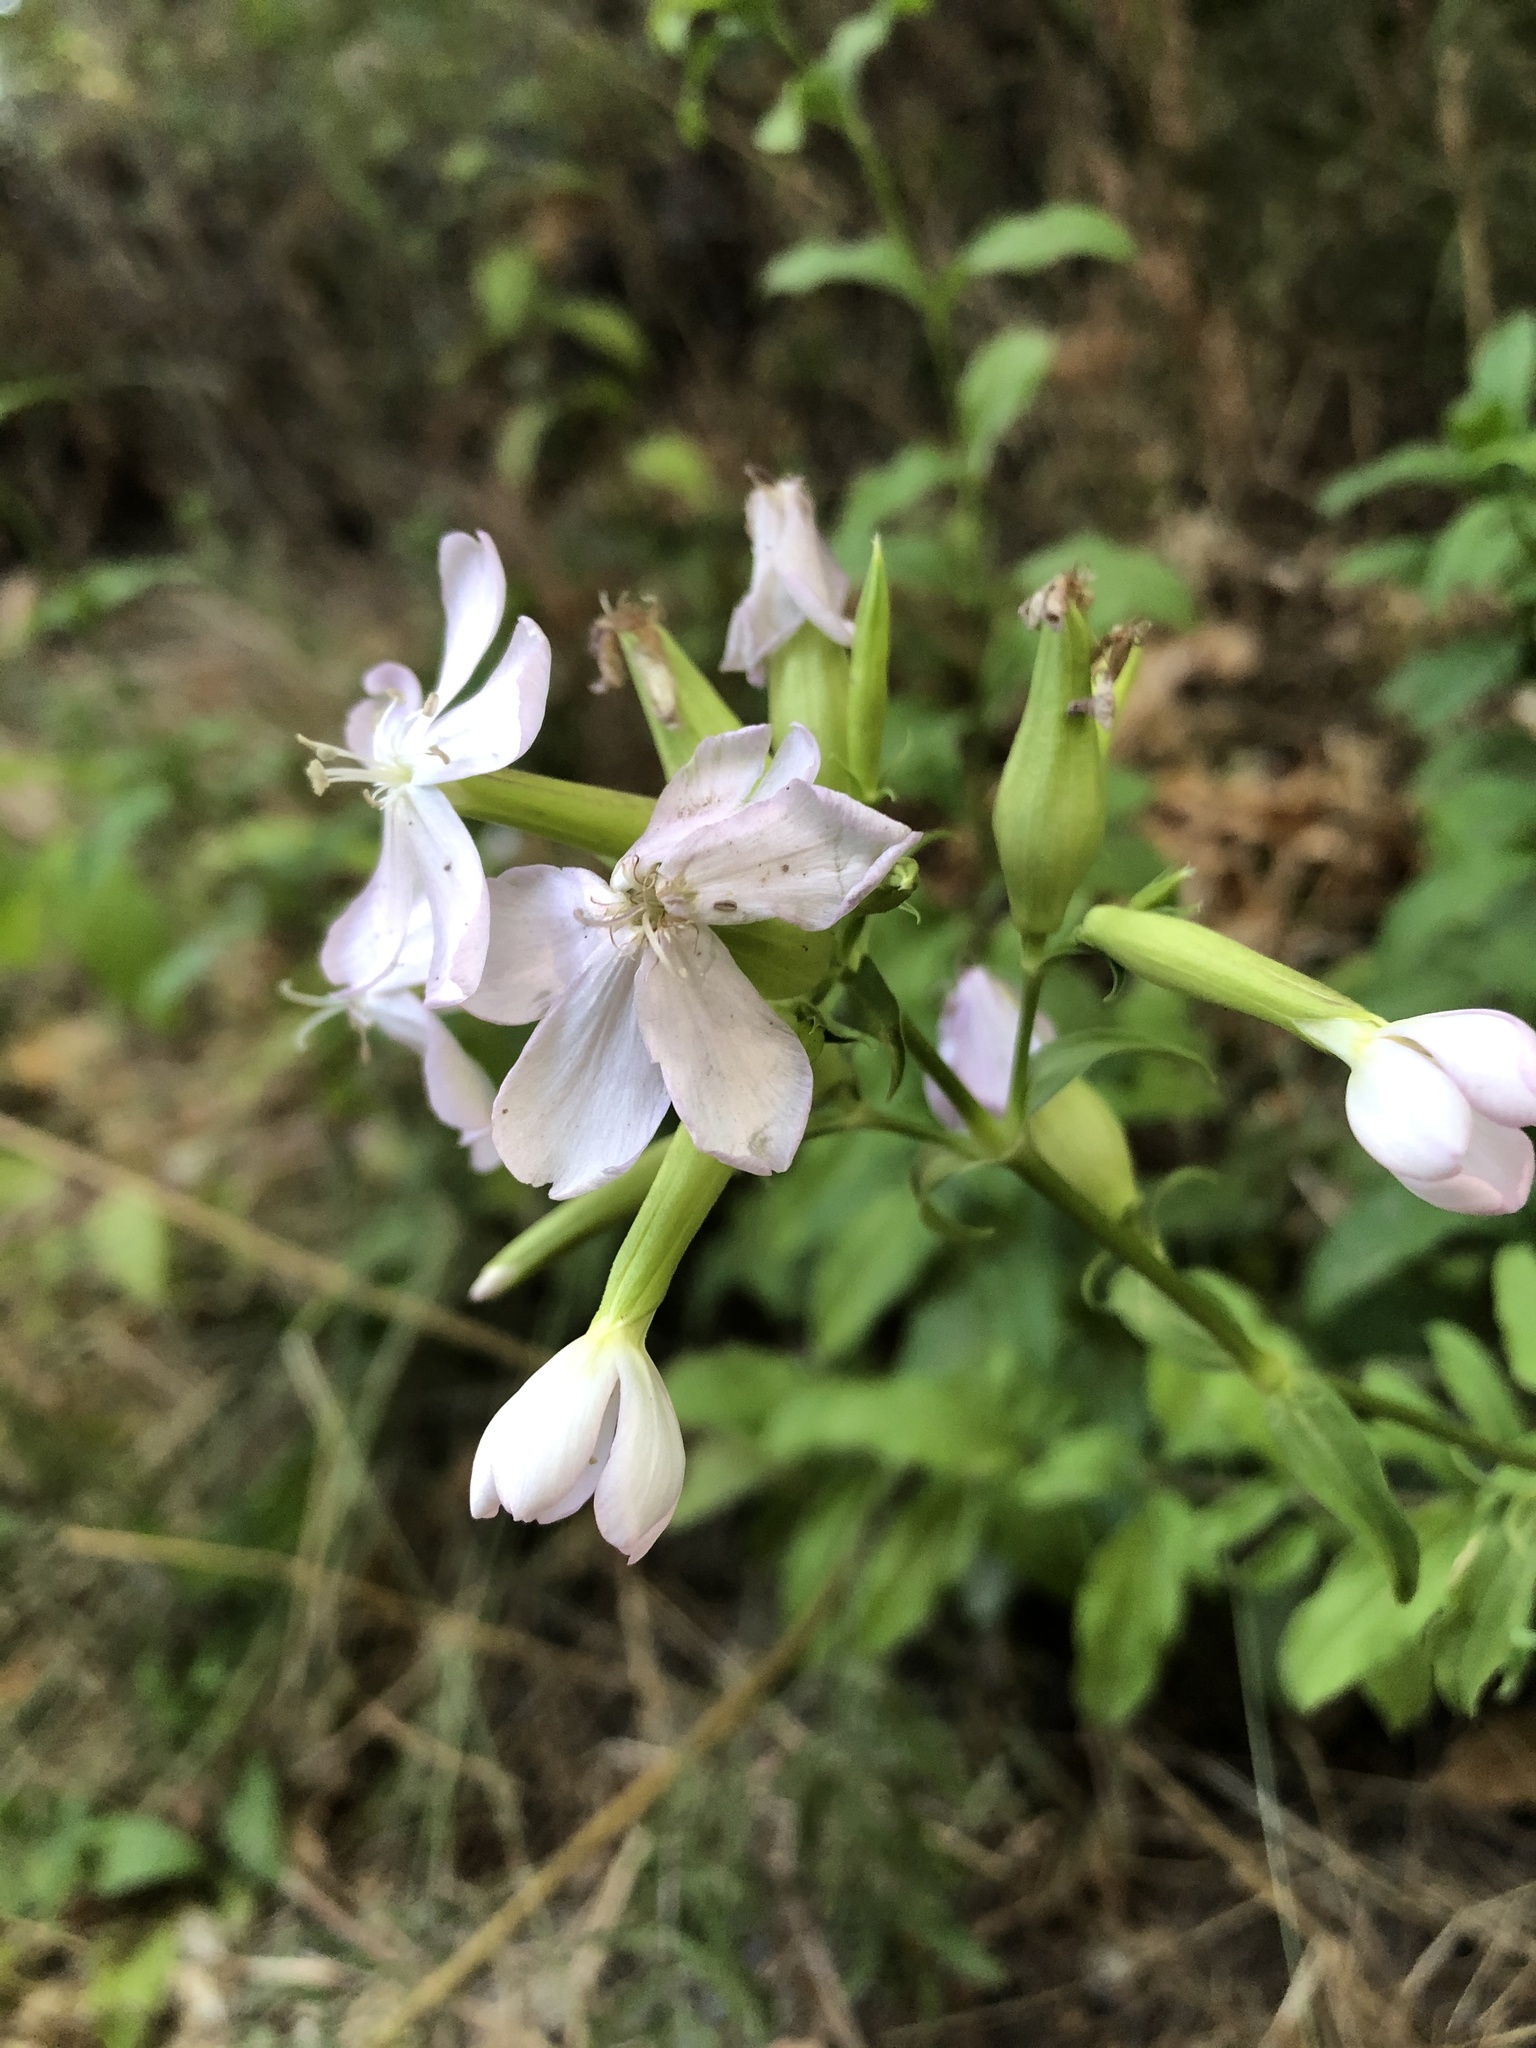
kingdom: Plantae
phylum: Tracheophyta
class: Magnoliopsida
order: Caryophyllales
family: Caryophyllaceae
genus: Saponaria
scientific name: Saponaria officinalis
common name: Soapwort
